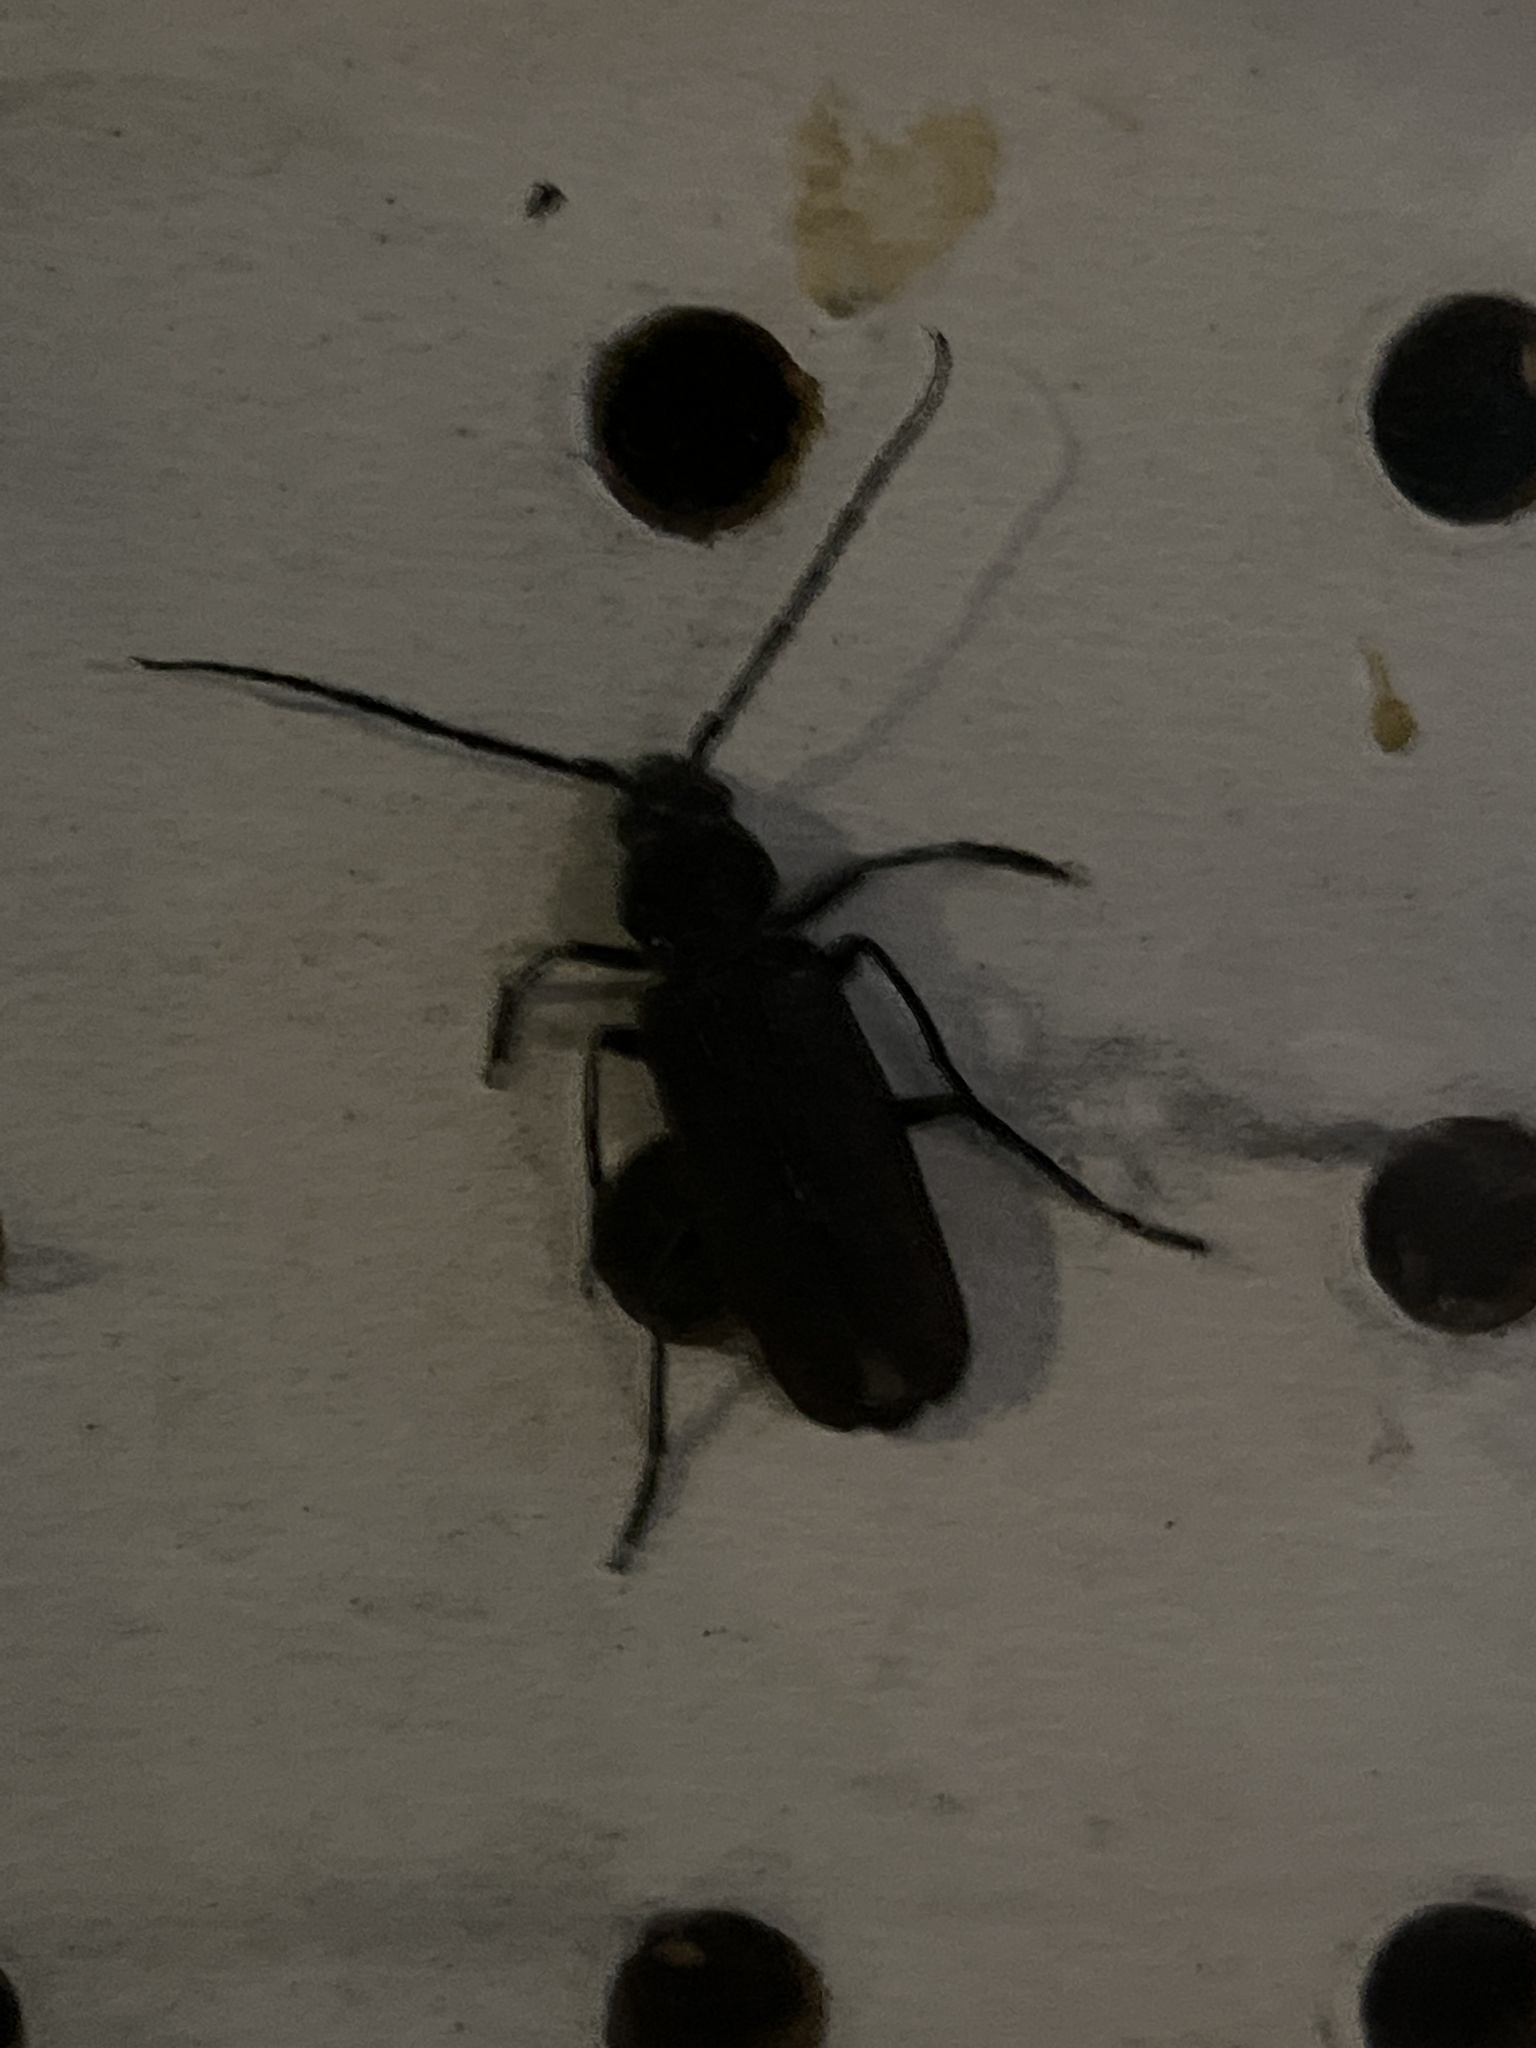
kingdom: Animalia
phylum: Arthropoda
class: Insecta
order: Coleoptera
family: Cerambycidae
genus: Arhopalus
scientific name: Arhopalus asperatus
